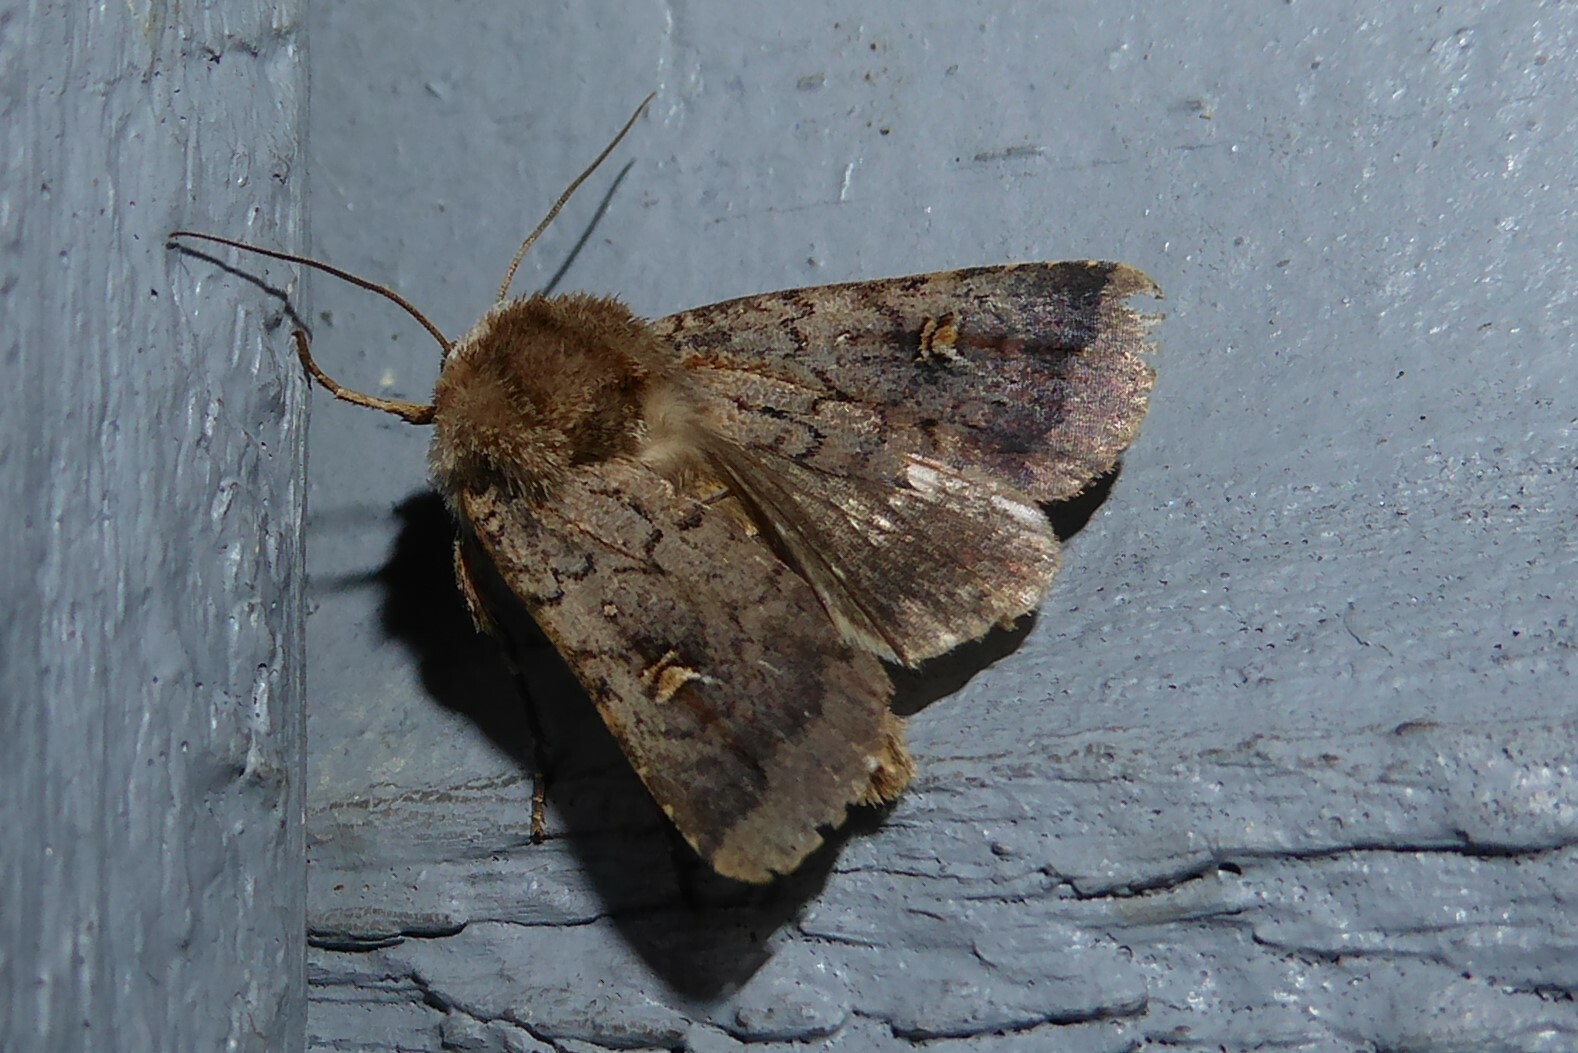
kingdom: Animalia
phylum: Arthropoda
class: Insecta
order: Lepidoptera
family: Noctuidae
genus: Proteuxoa
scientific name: Proteuxoa tetronycha
